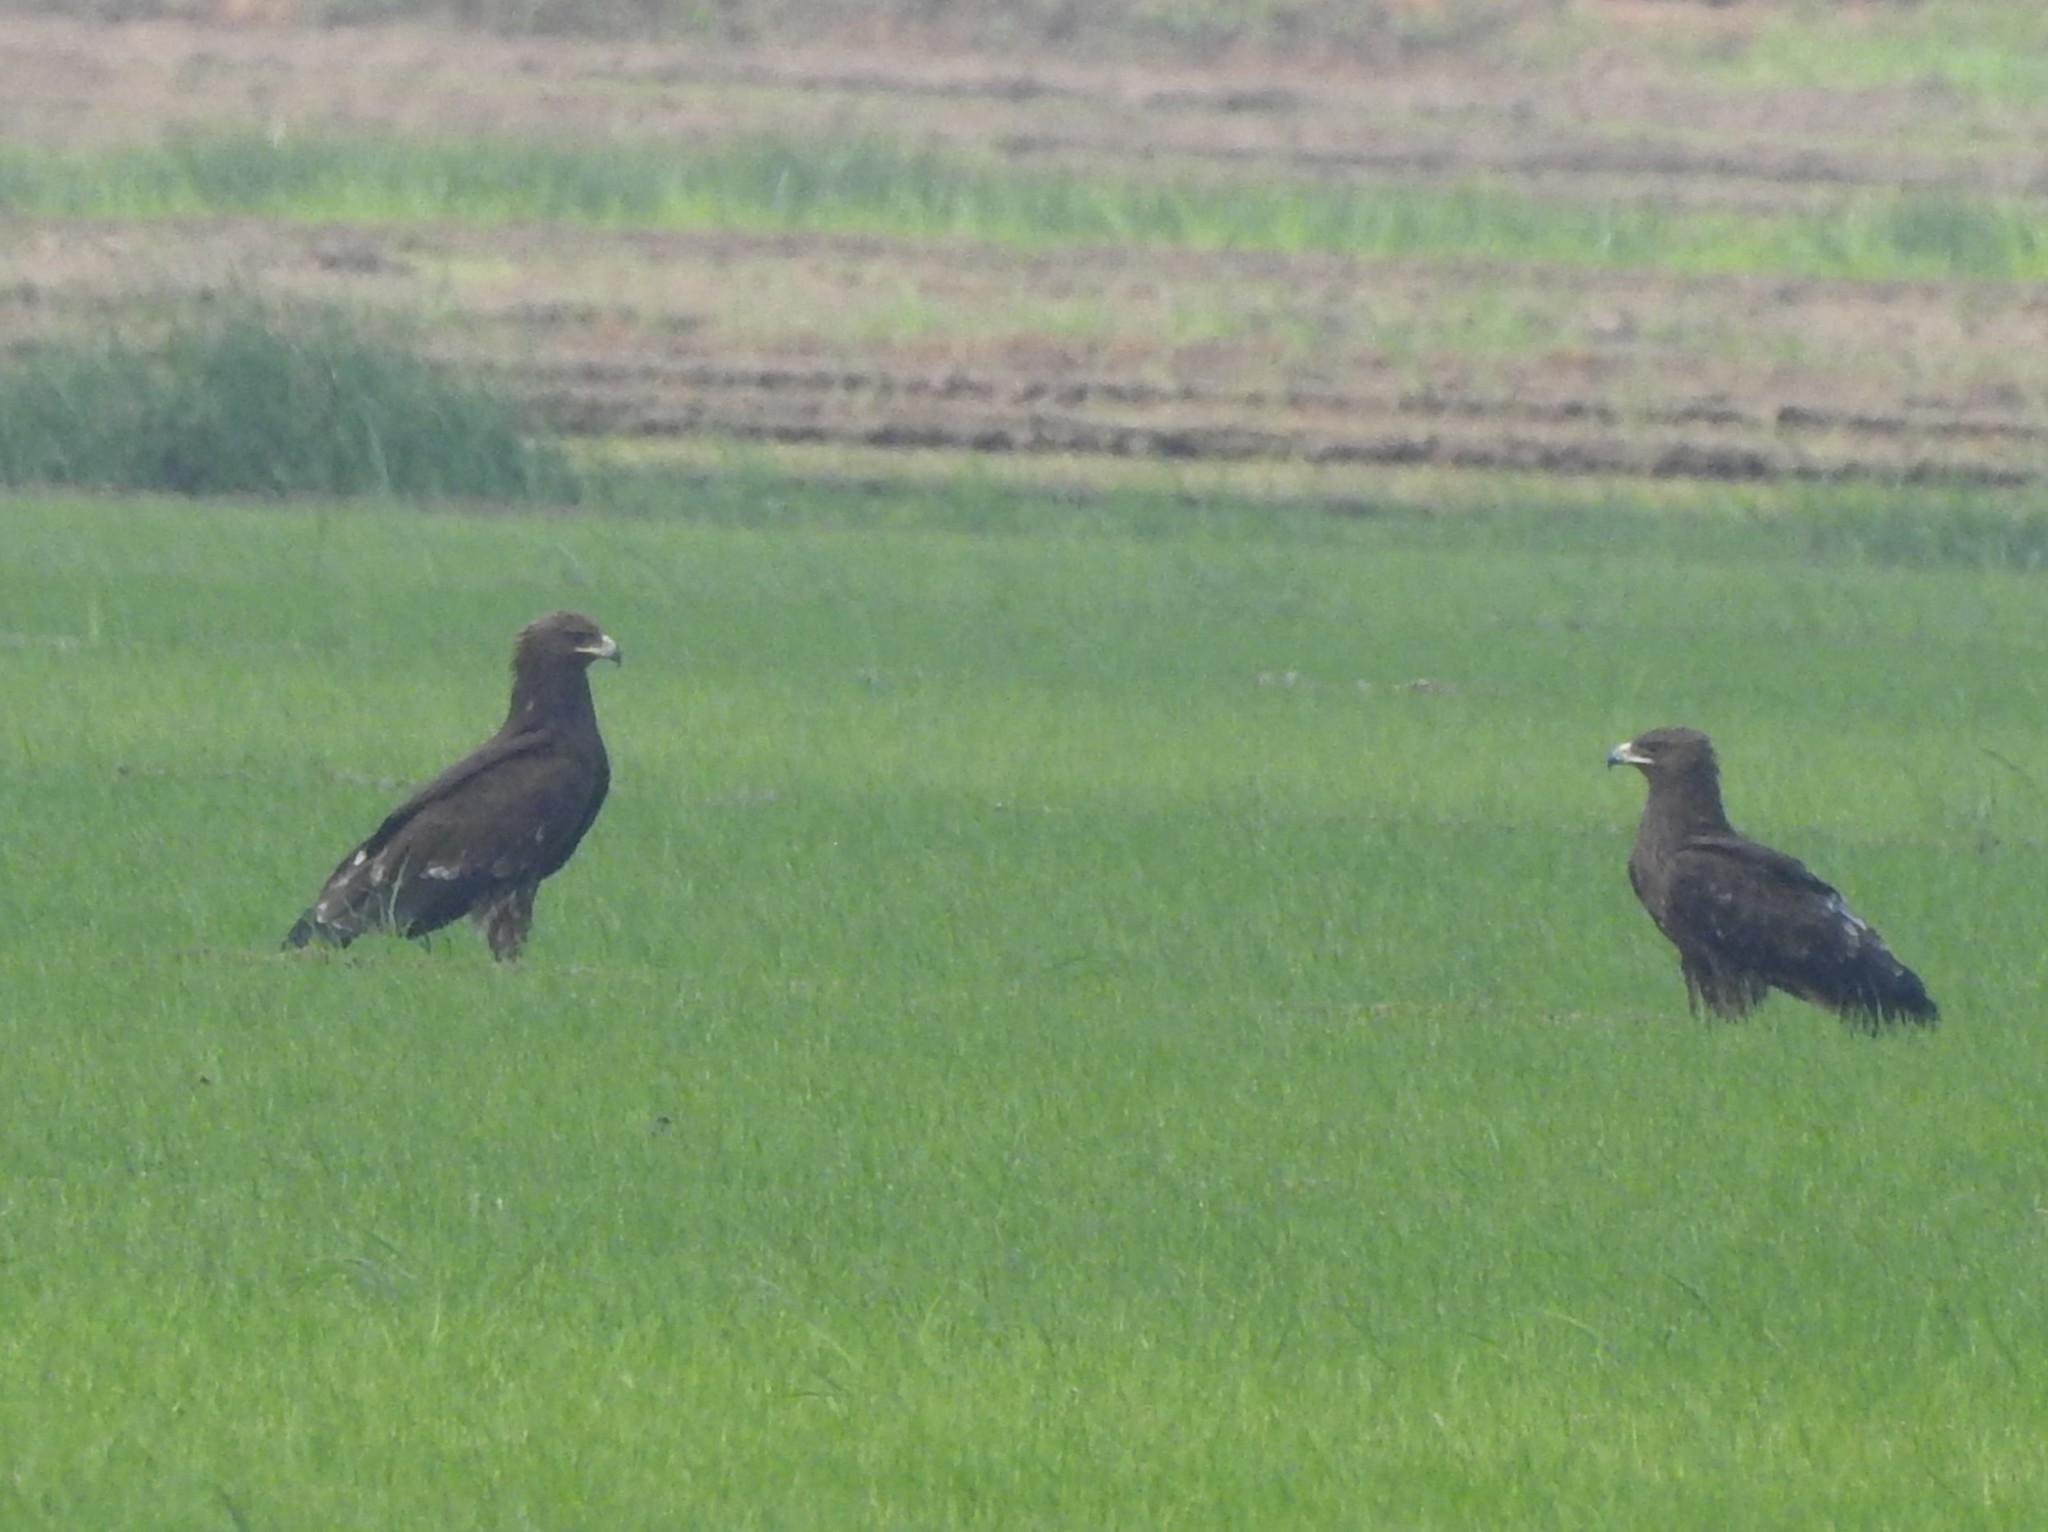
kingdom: Animalia
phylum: Chordata
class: Aves
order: Accipitriformes
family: Accipitridae
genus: Aquila
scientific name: Aquila clanga
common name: Greater spotted eagle
